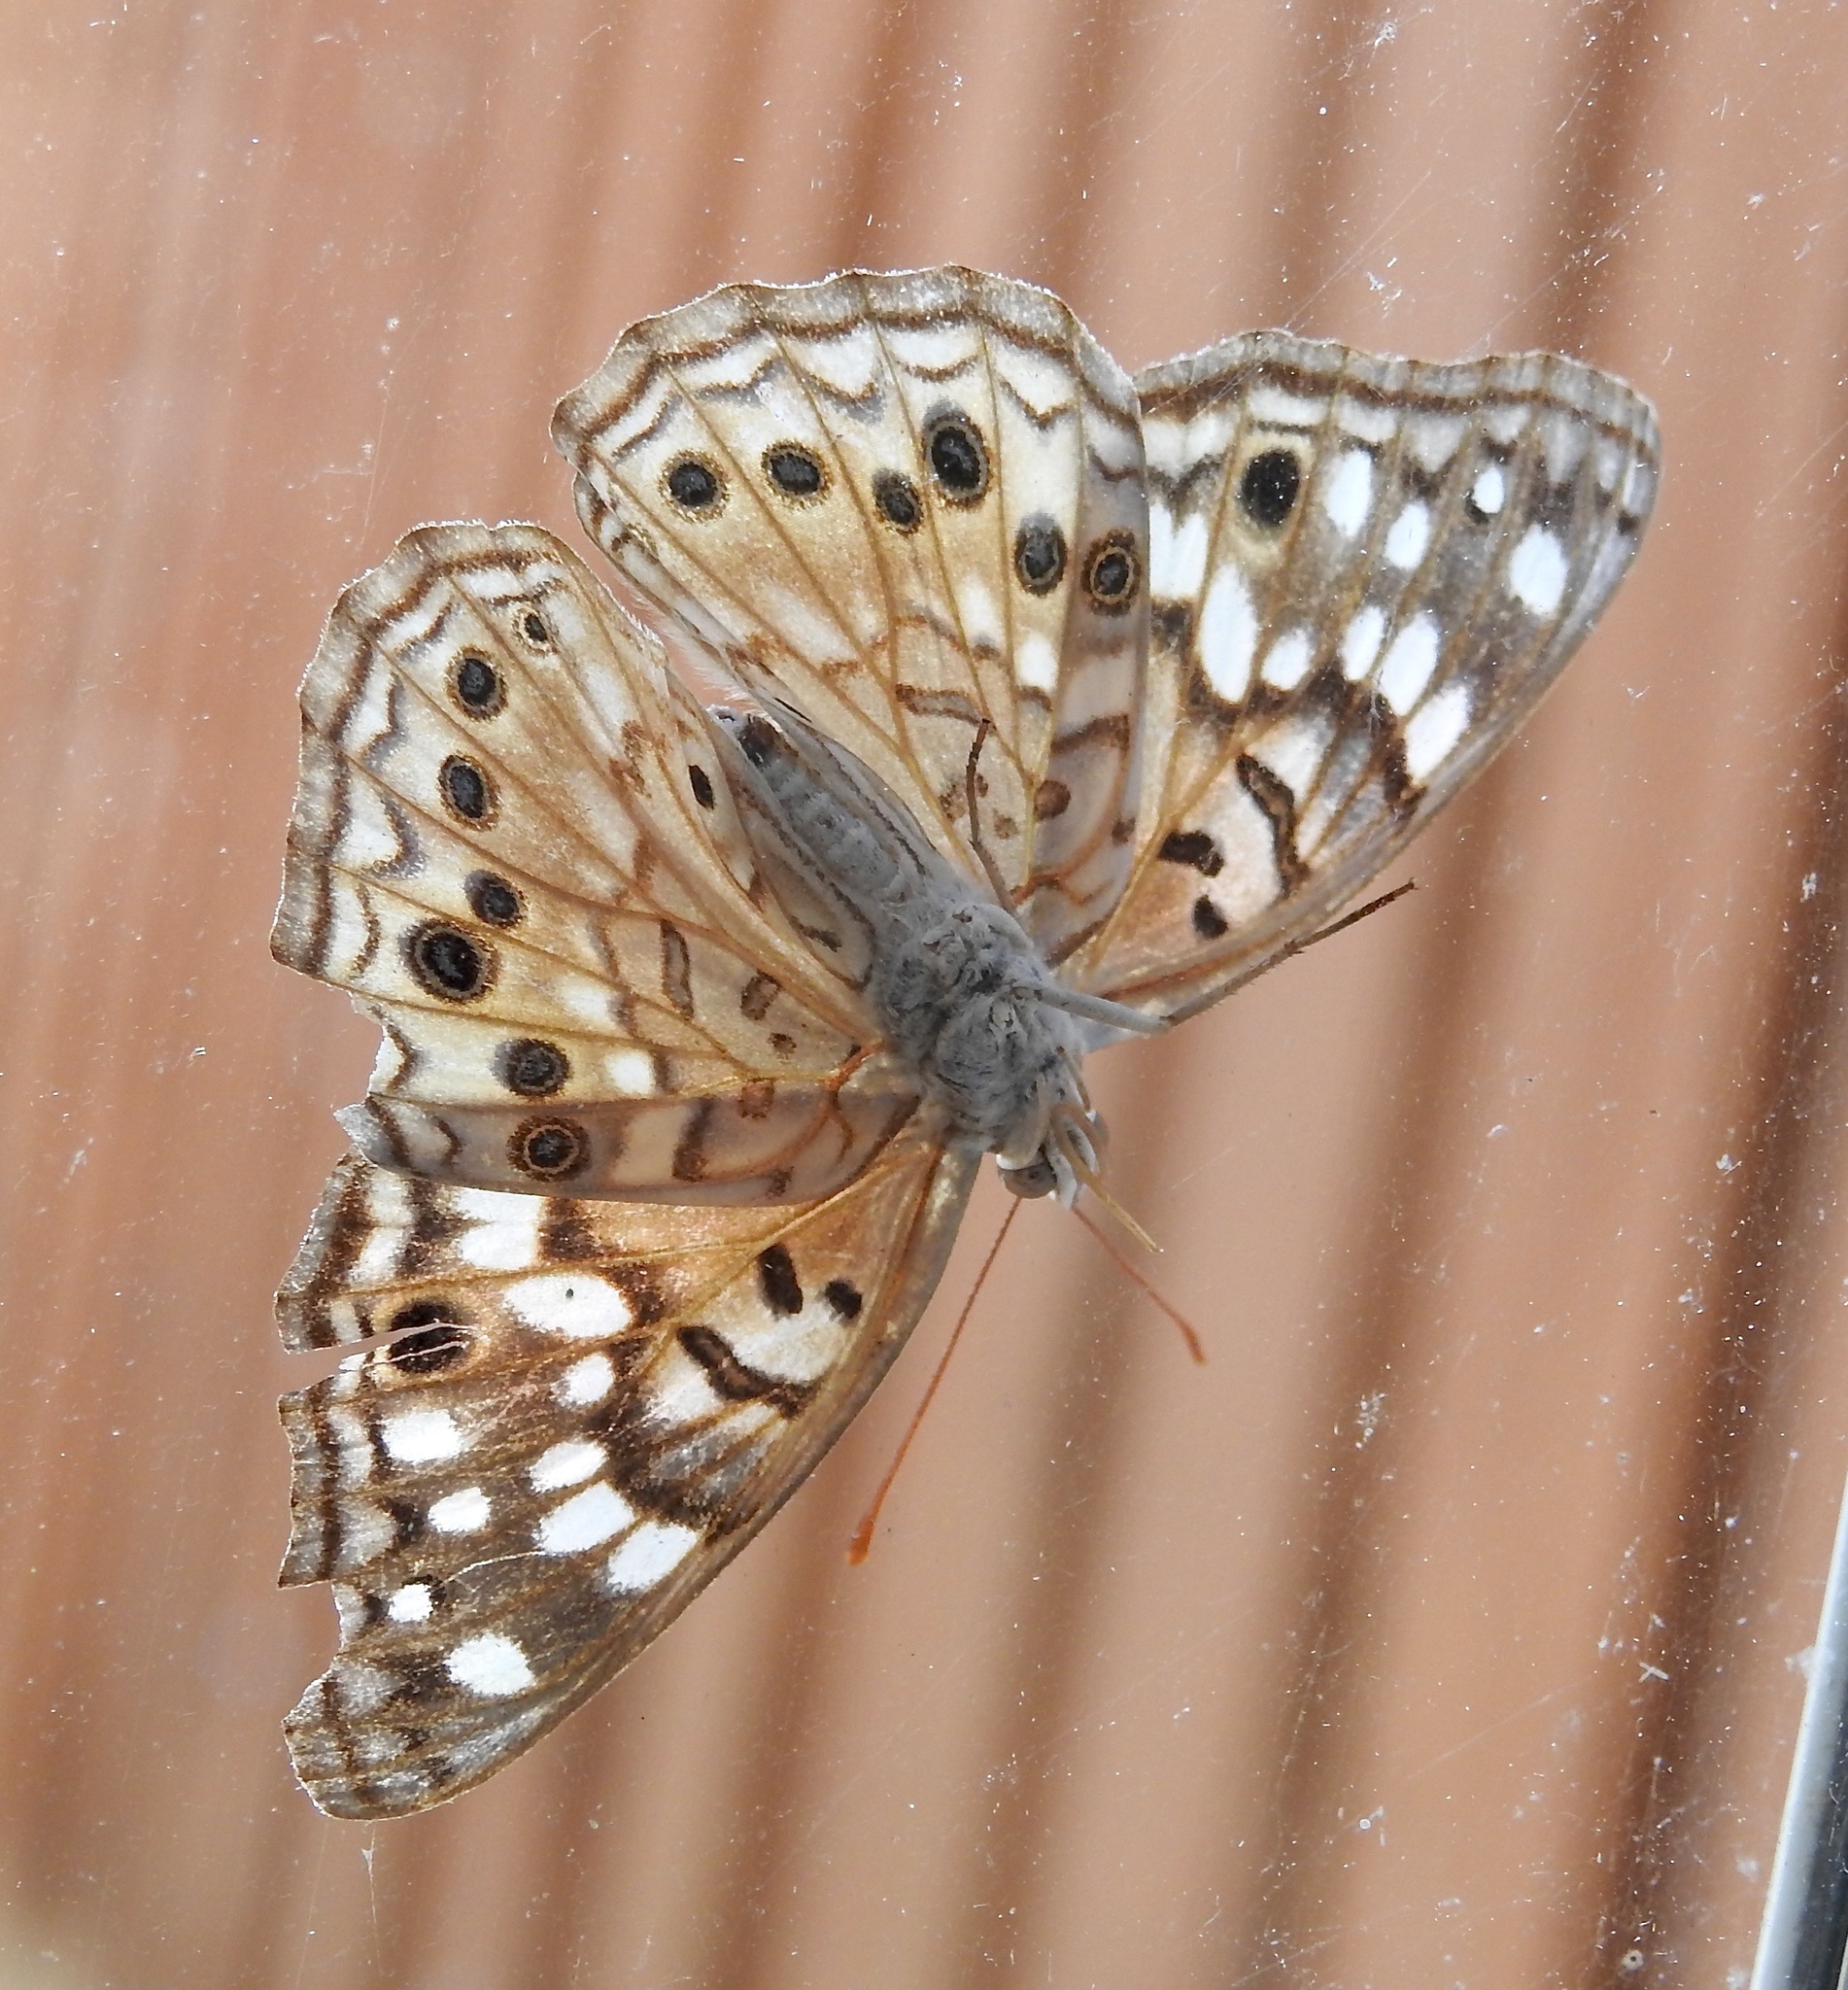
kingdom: Animalia
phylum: Arthropoda
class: Insecta
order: Lepidoptera
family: Nymphalidae
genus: Asterocampa
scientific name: Asterocampa celtis
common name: Hackberry emperor
